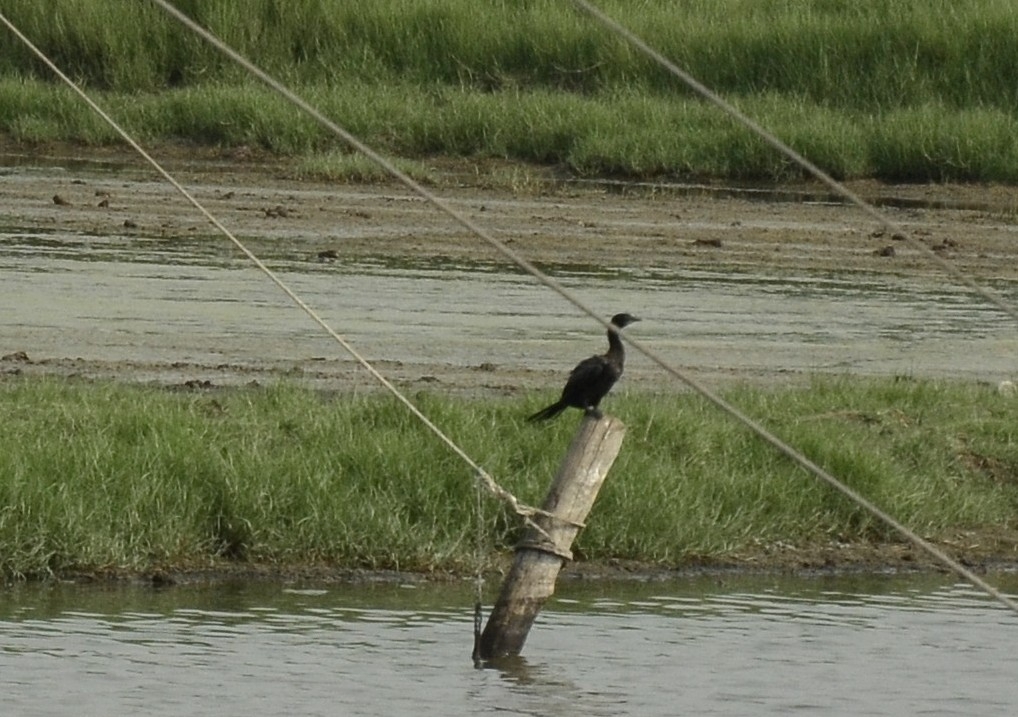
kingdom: Animalia
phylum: Chordata
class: Aves
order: Suliformes
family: Phalacrocoracidae
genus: Microcarbo
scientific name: Microcarbo niger
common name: Little cormorant
